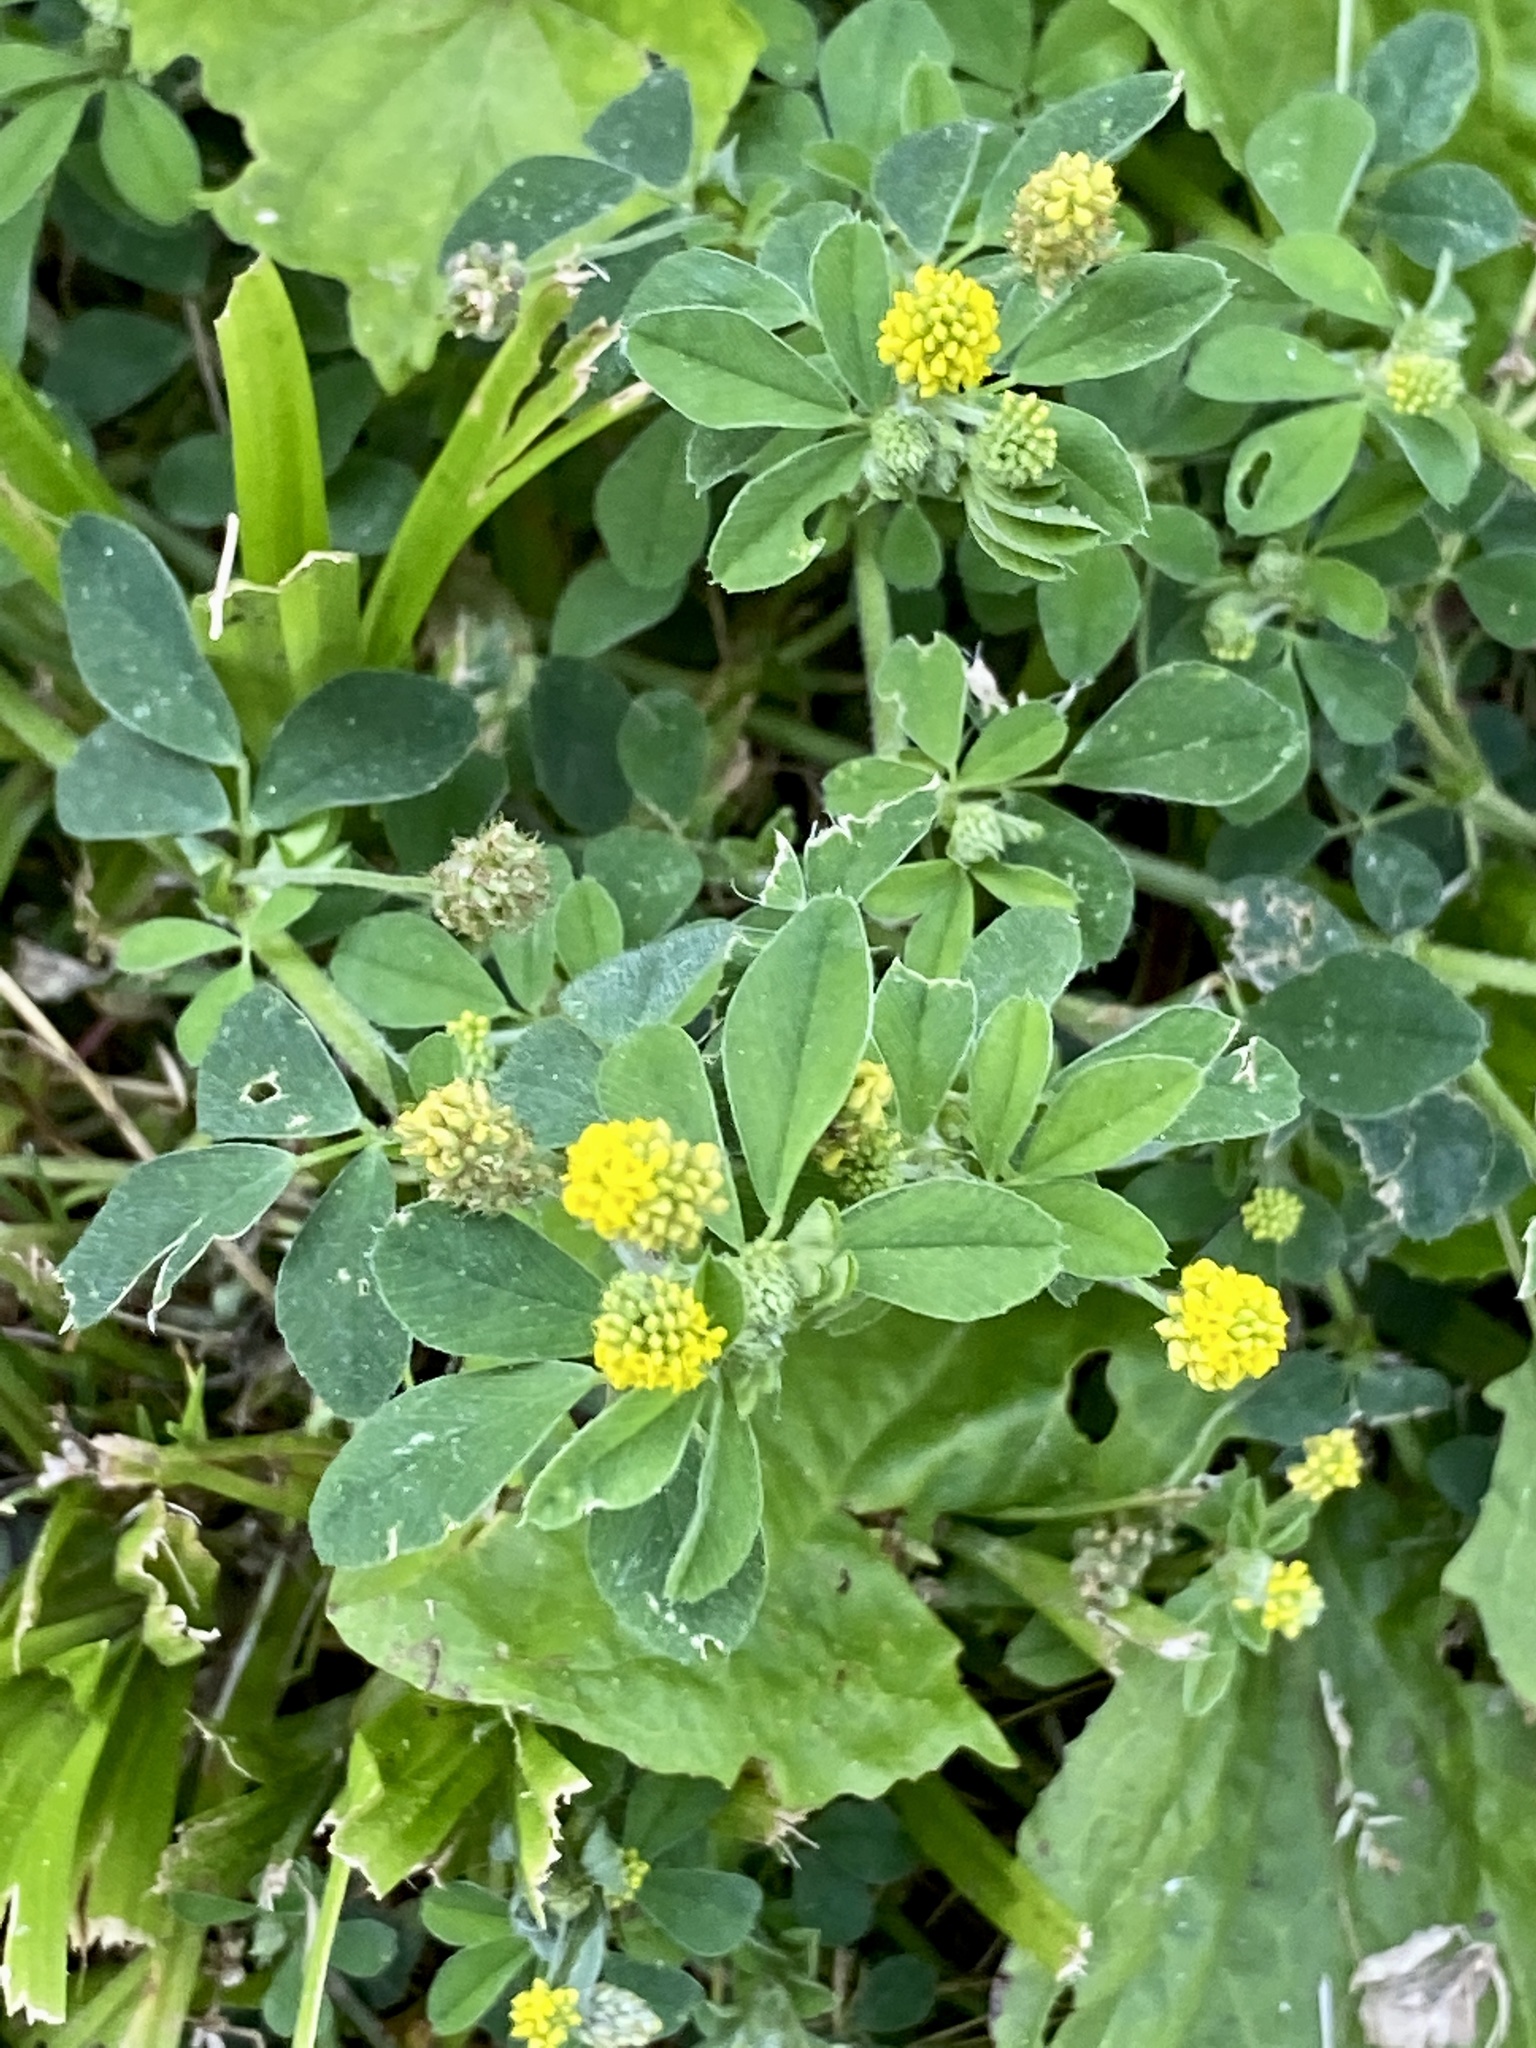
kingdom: Plantae
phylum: Tracheophyta
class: Magnoliopsida
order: Fabales
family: Fabaceae
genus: Medicago
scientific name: Medicago lupulina
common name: Black medick
